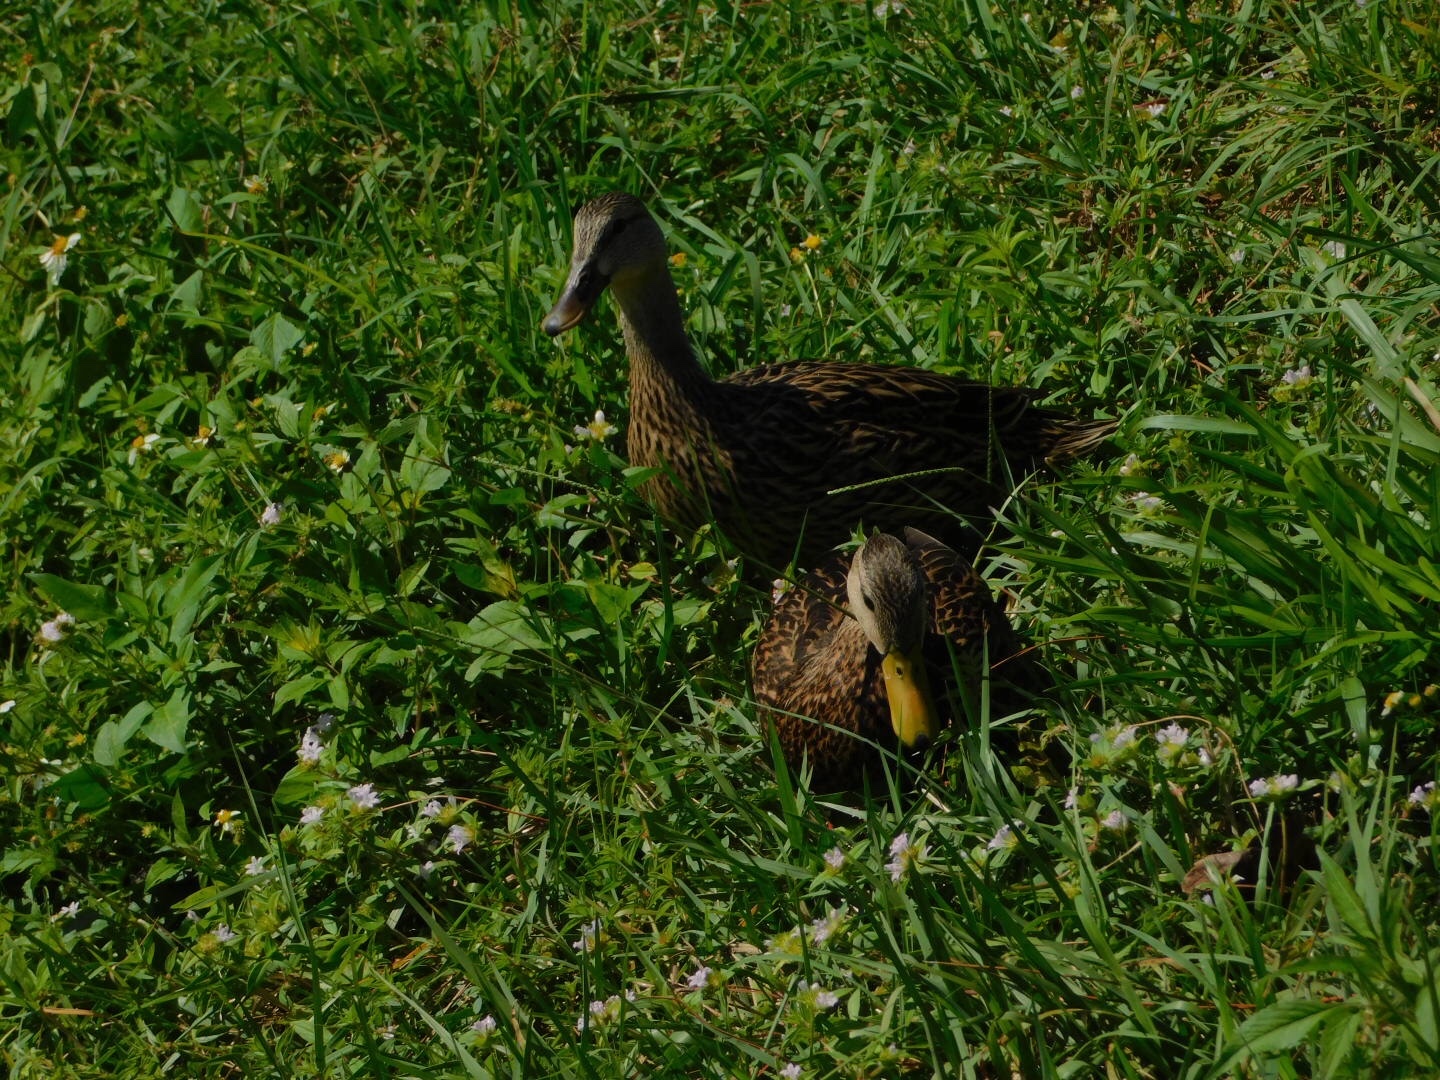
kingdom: Animalia
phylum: Chordata
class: Aves
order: Anseriformes
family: Anatidae
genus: Anas
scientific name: Anas fulvigula
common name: Mottled duck
